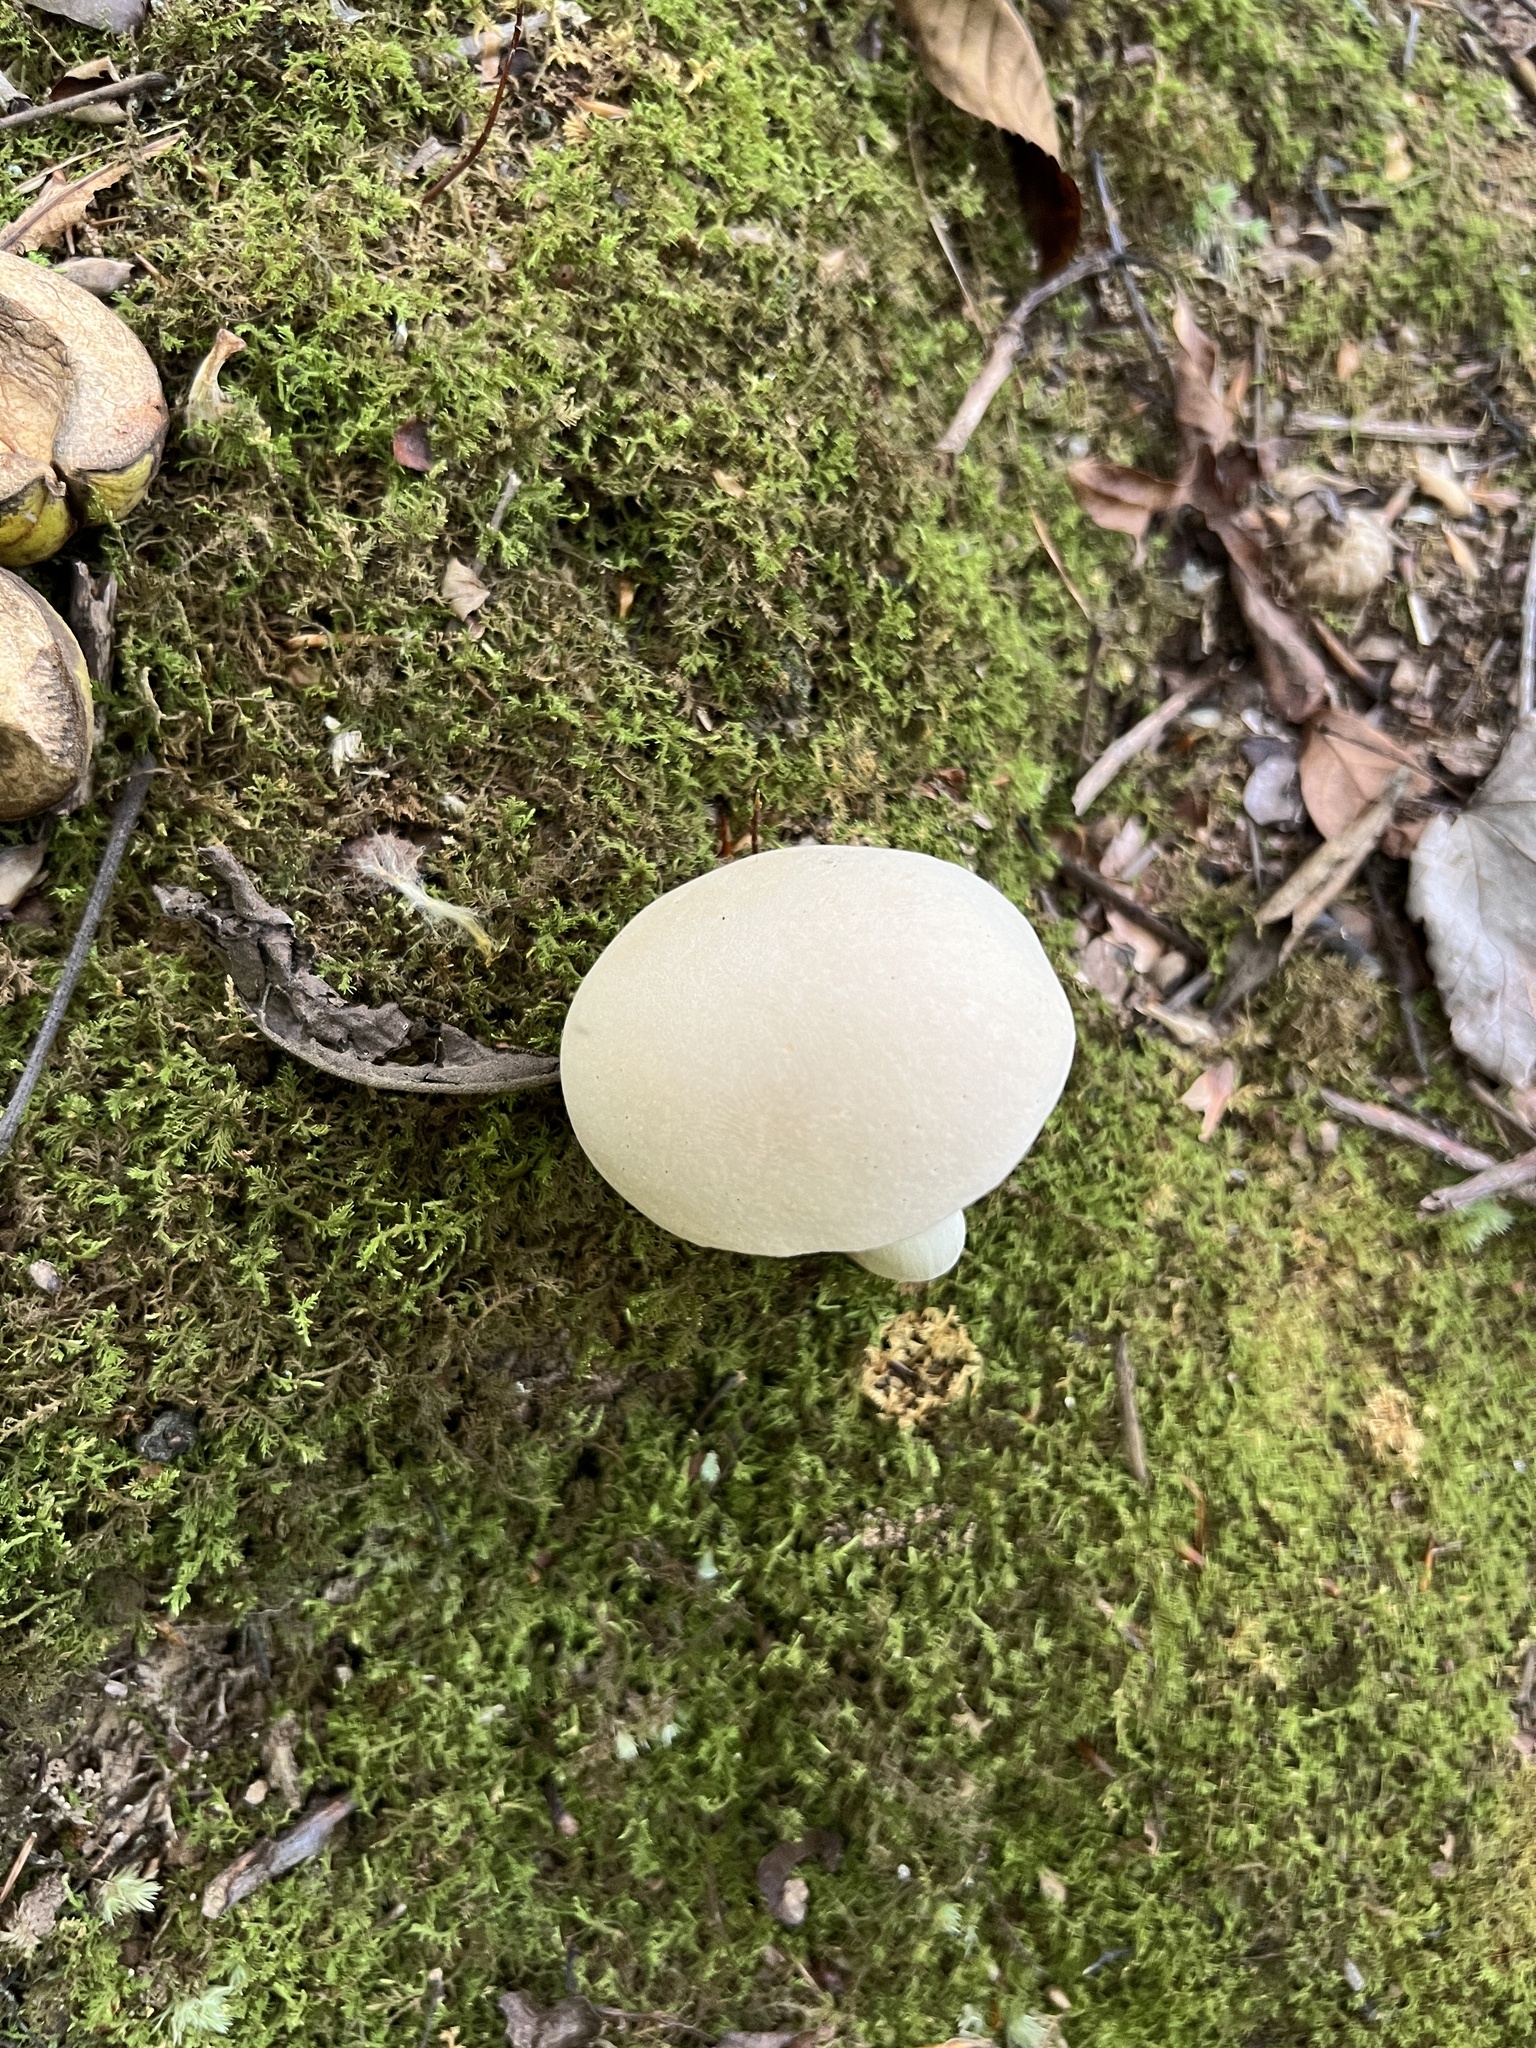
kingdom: Fungi
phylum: Basidiomycota
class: Agaricomycetes
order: Boletales
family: Boletaceae
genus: Imleria
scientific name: Imleria pallida
